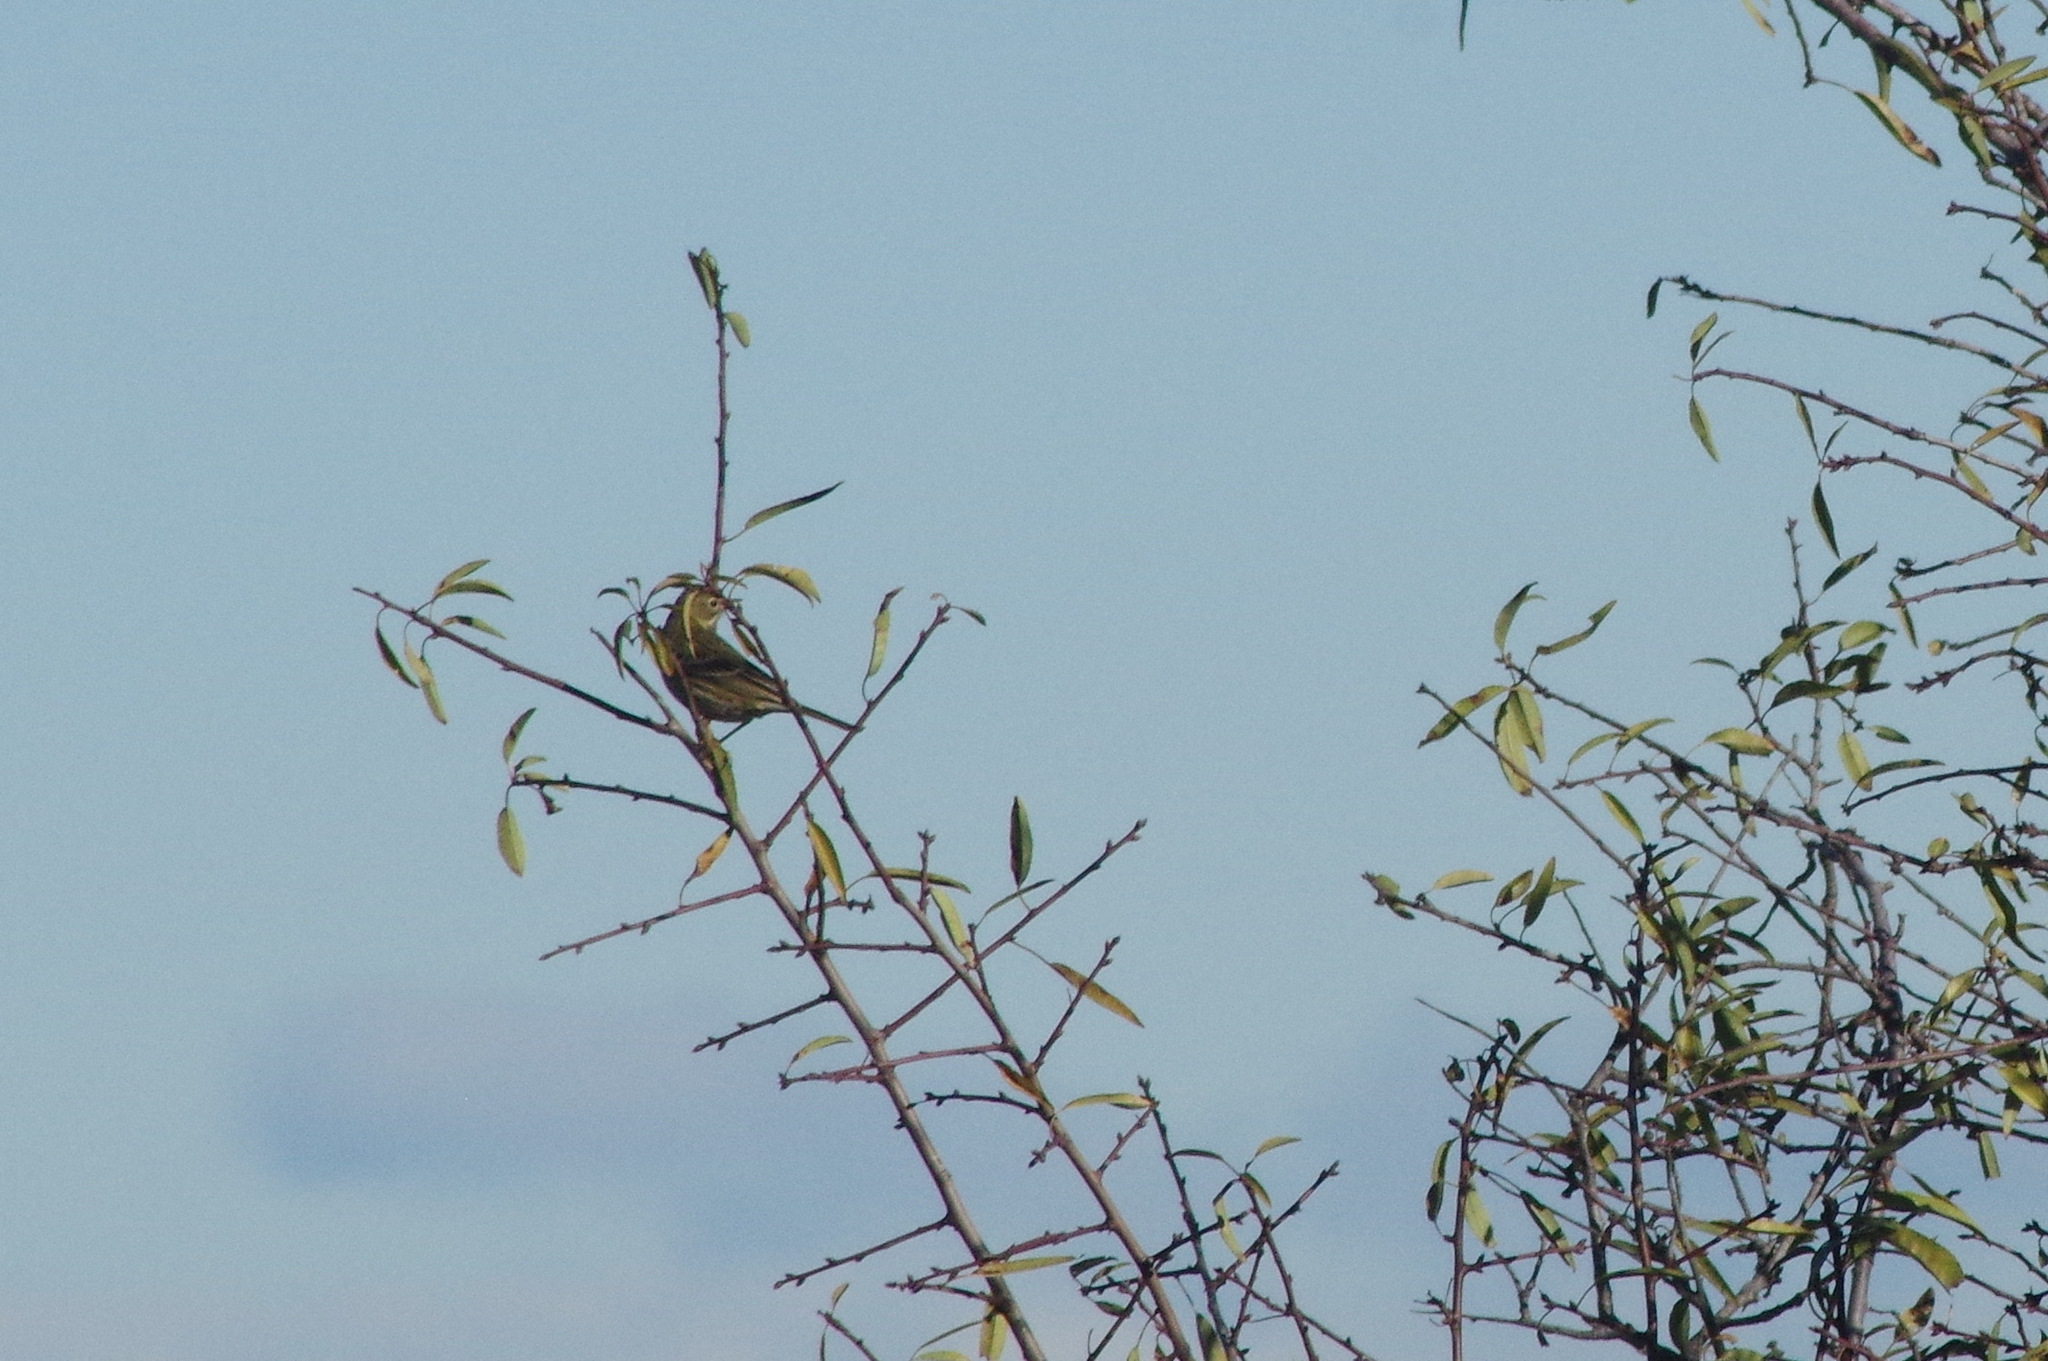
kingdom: Animalia
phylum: Chordata
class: Aves
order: Passeriformes
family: Motacillidae
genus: Anthus
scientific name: Anthus pratensis
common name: Meadow pipit
